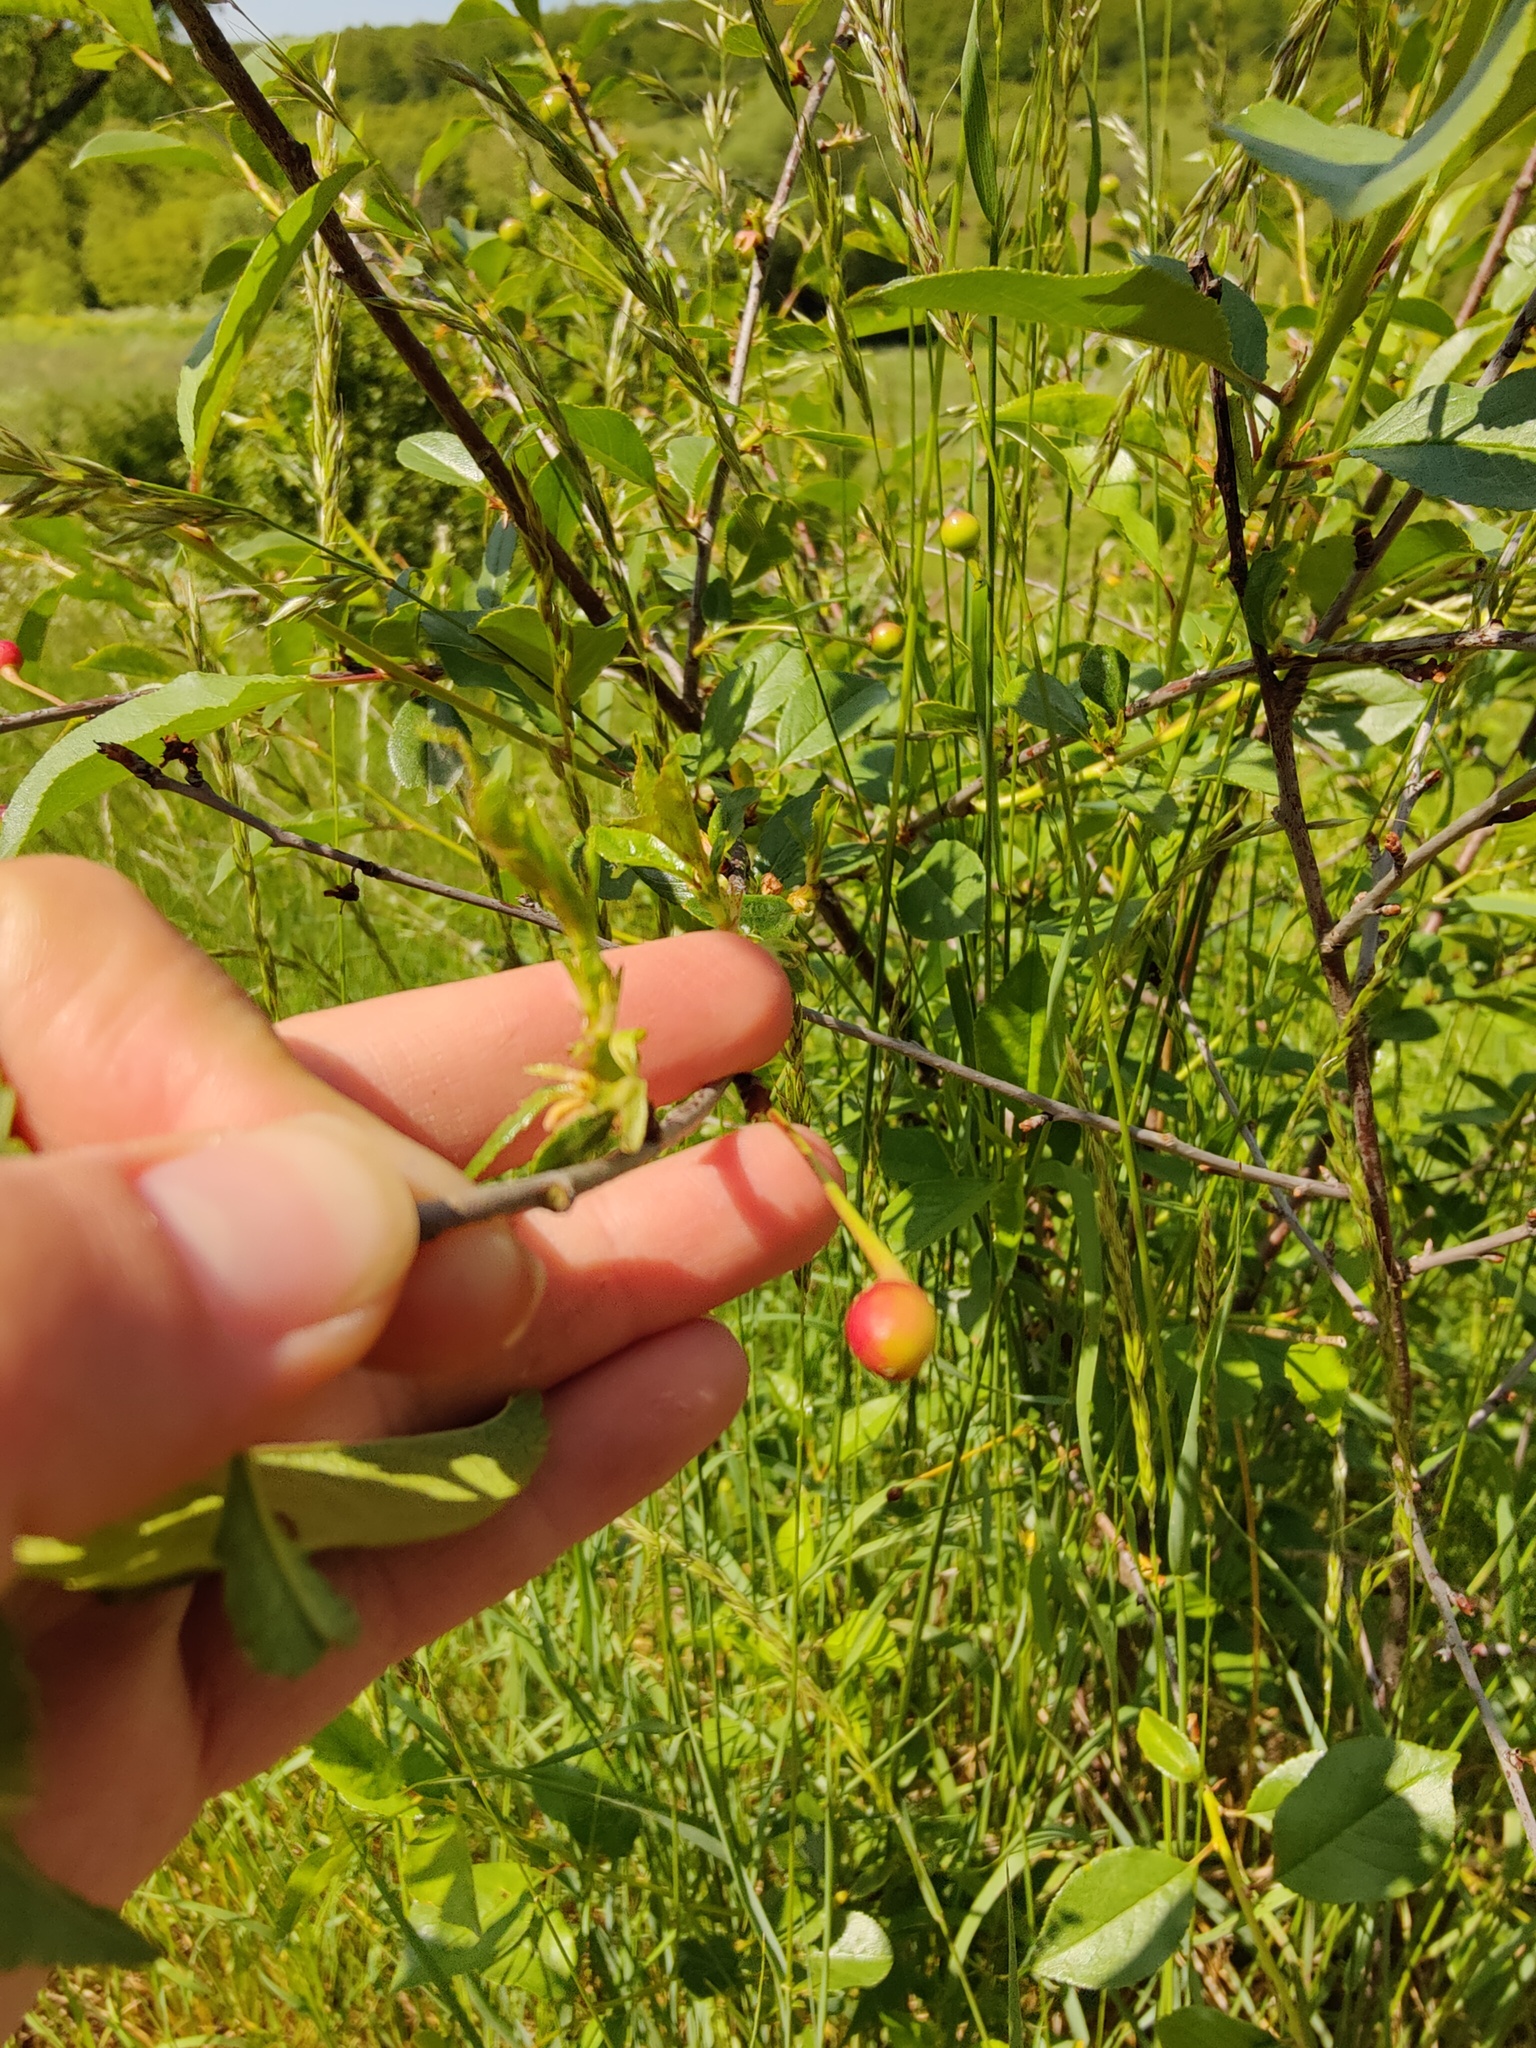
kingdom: Plantae
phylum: Tracheophyta
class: Magnoliopsida
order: Rosales
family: Rosaceae
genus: Prunus
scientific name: Prunus fruticosa
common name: European dwarf cherry
